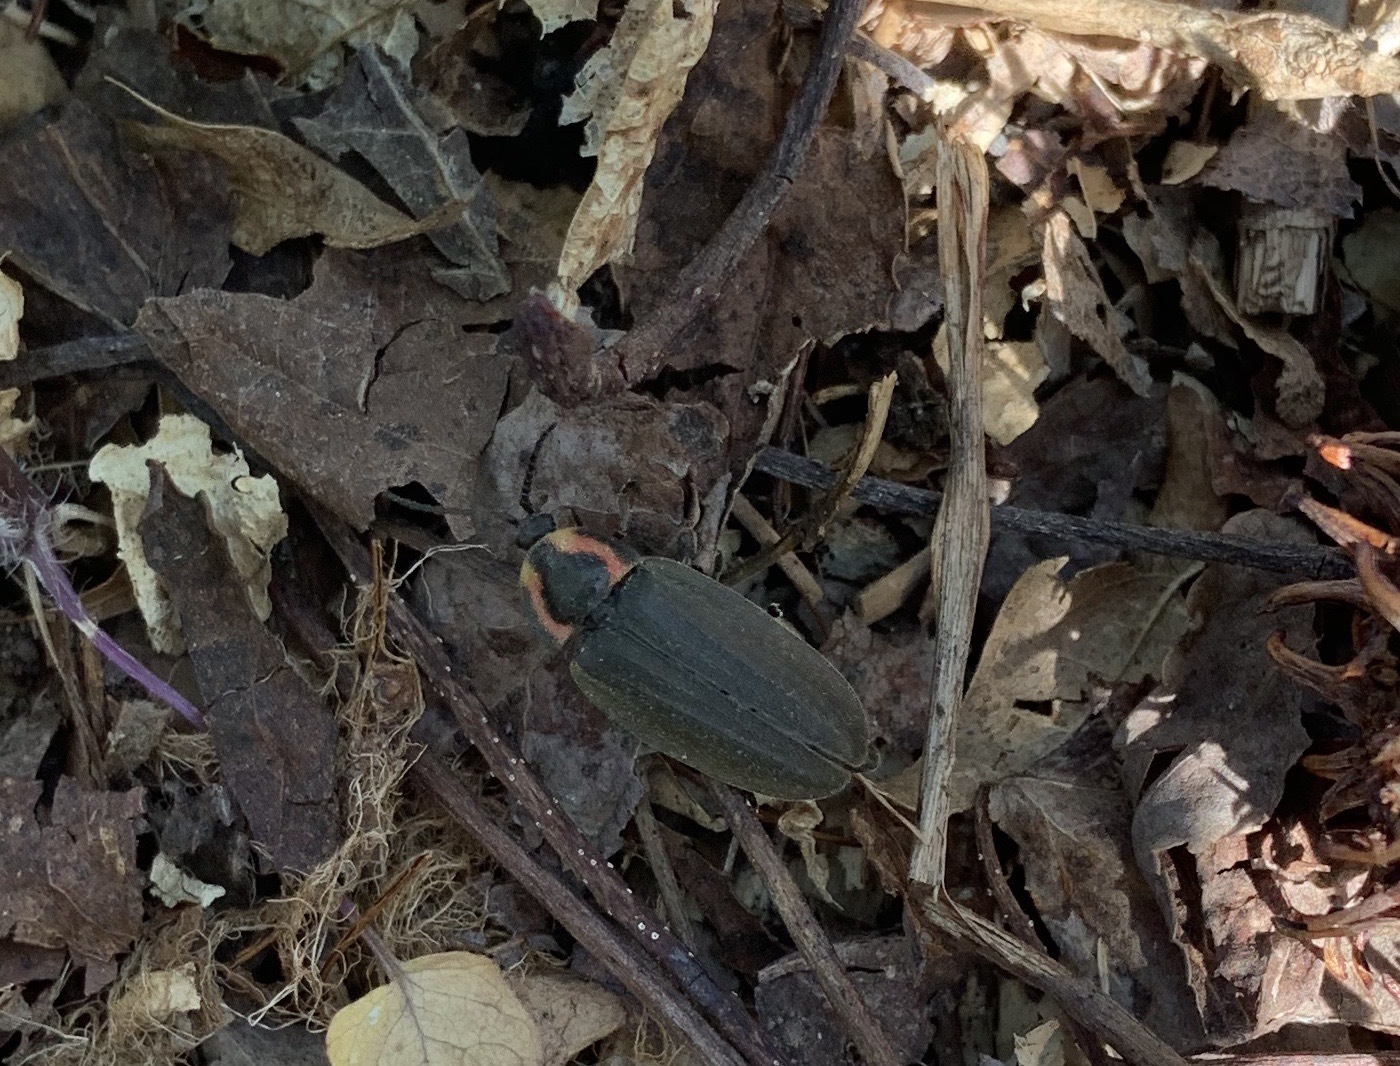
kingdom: Animalia
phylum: Arthropoda
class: Insecta
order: Coleoptera
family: Lampyridae
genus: Photinus
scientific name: Photinus corrusca
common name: Winter firefly
